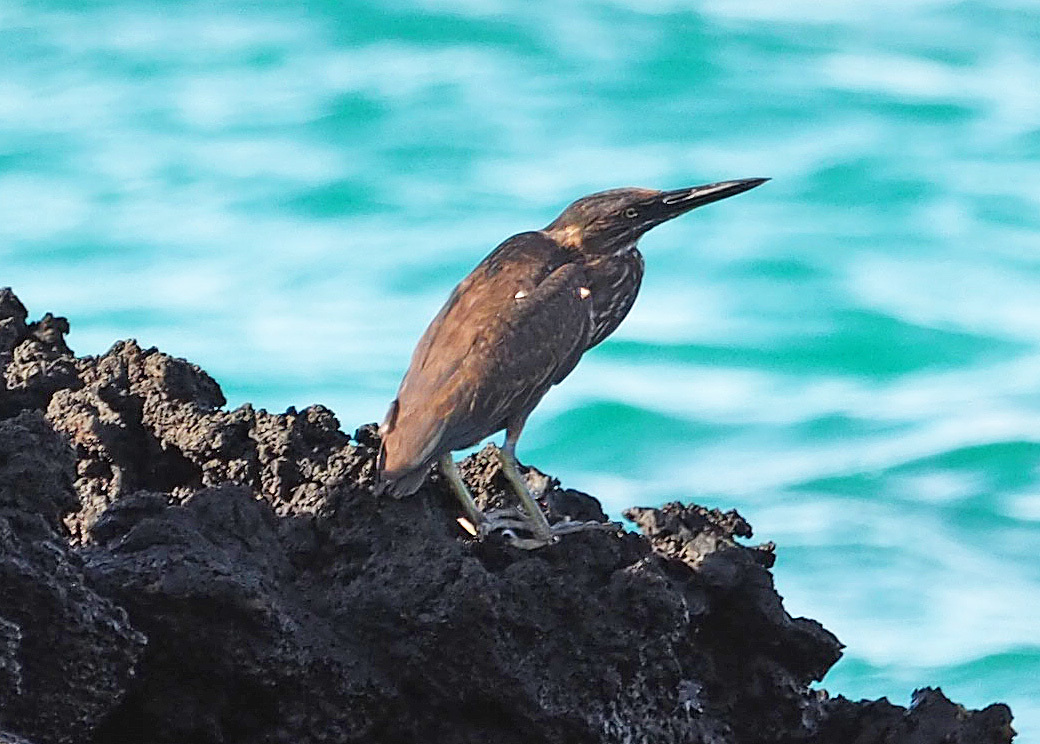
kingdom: Animalia
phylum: Chordata
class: Aves
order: Pelecaniformes
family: Ardeidae
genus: Butorides
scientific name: Butorides striata
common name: Striated heron
